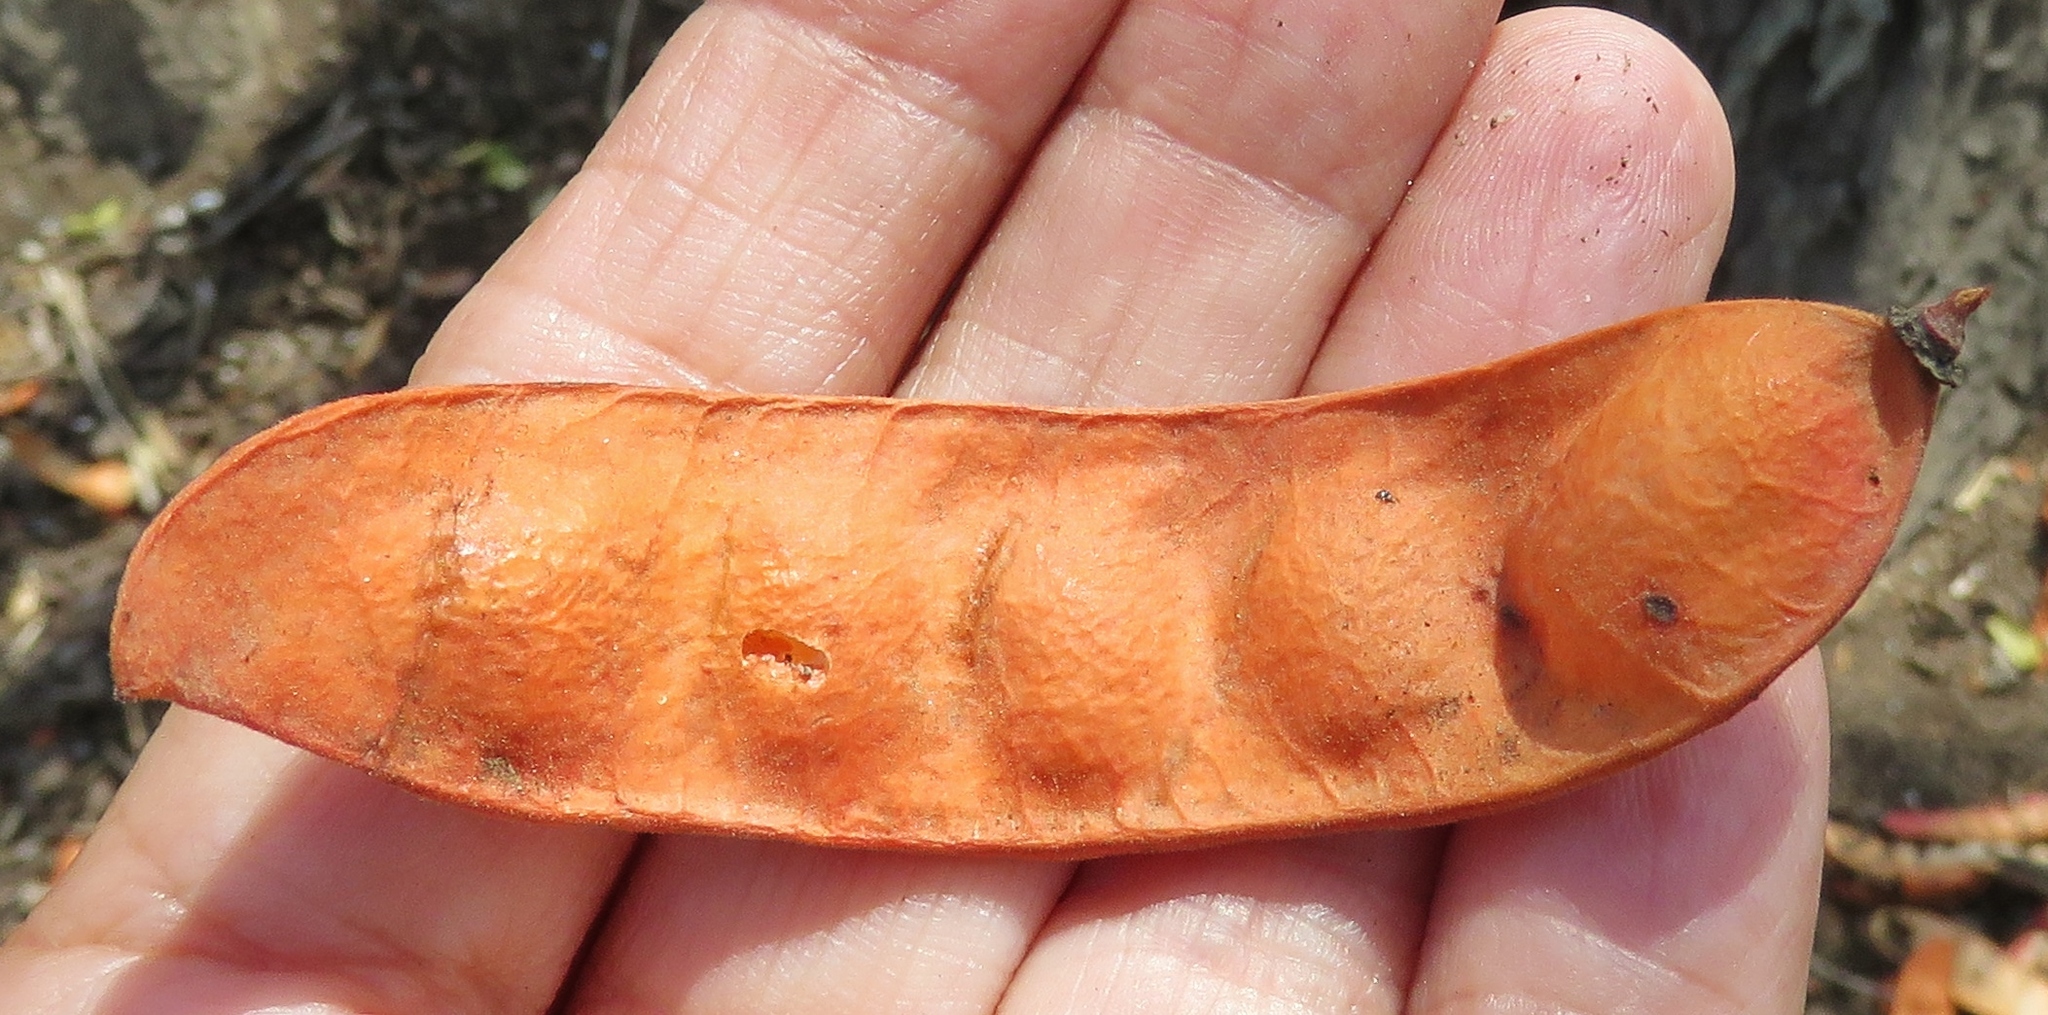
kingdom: Plantae
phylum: Tracheophyta
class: Magnoliopsida
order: Fabales
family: Fabaceae
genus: Tara
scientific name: Tara spinosa
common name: Spiny holdback
